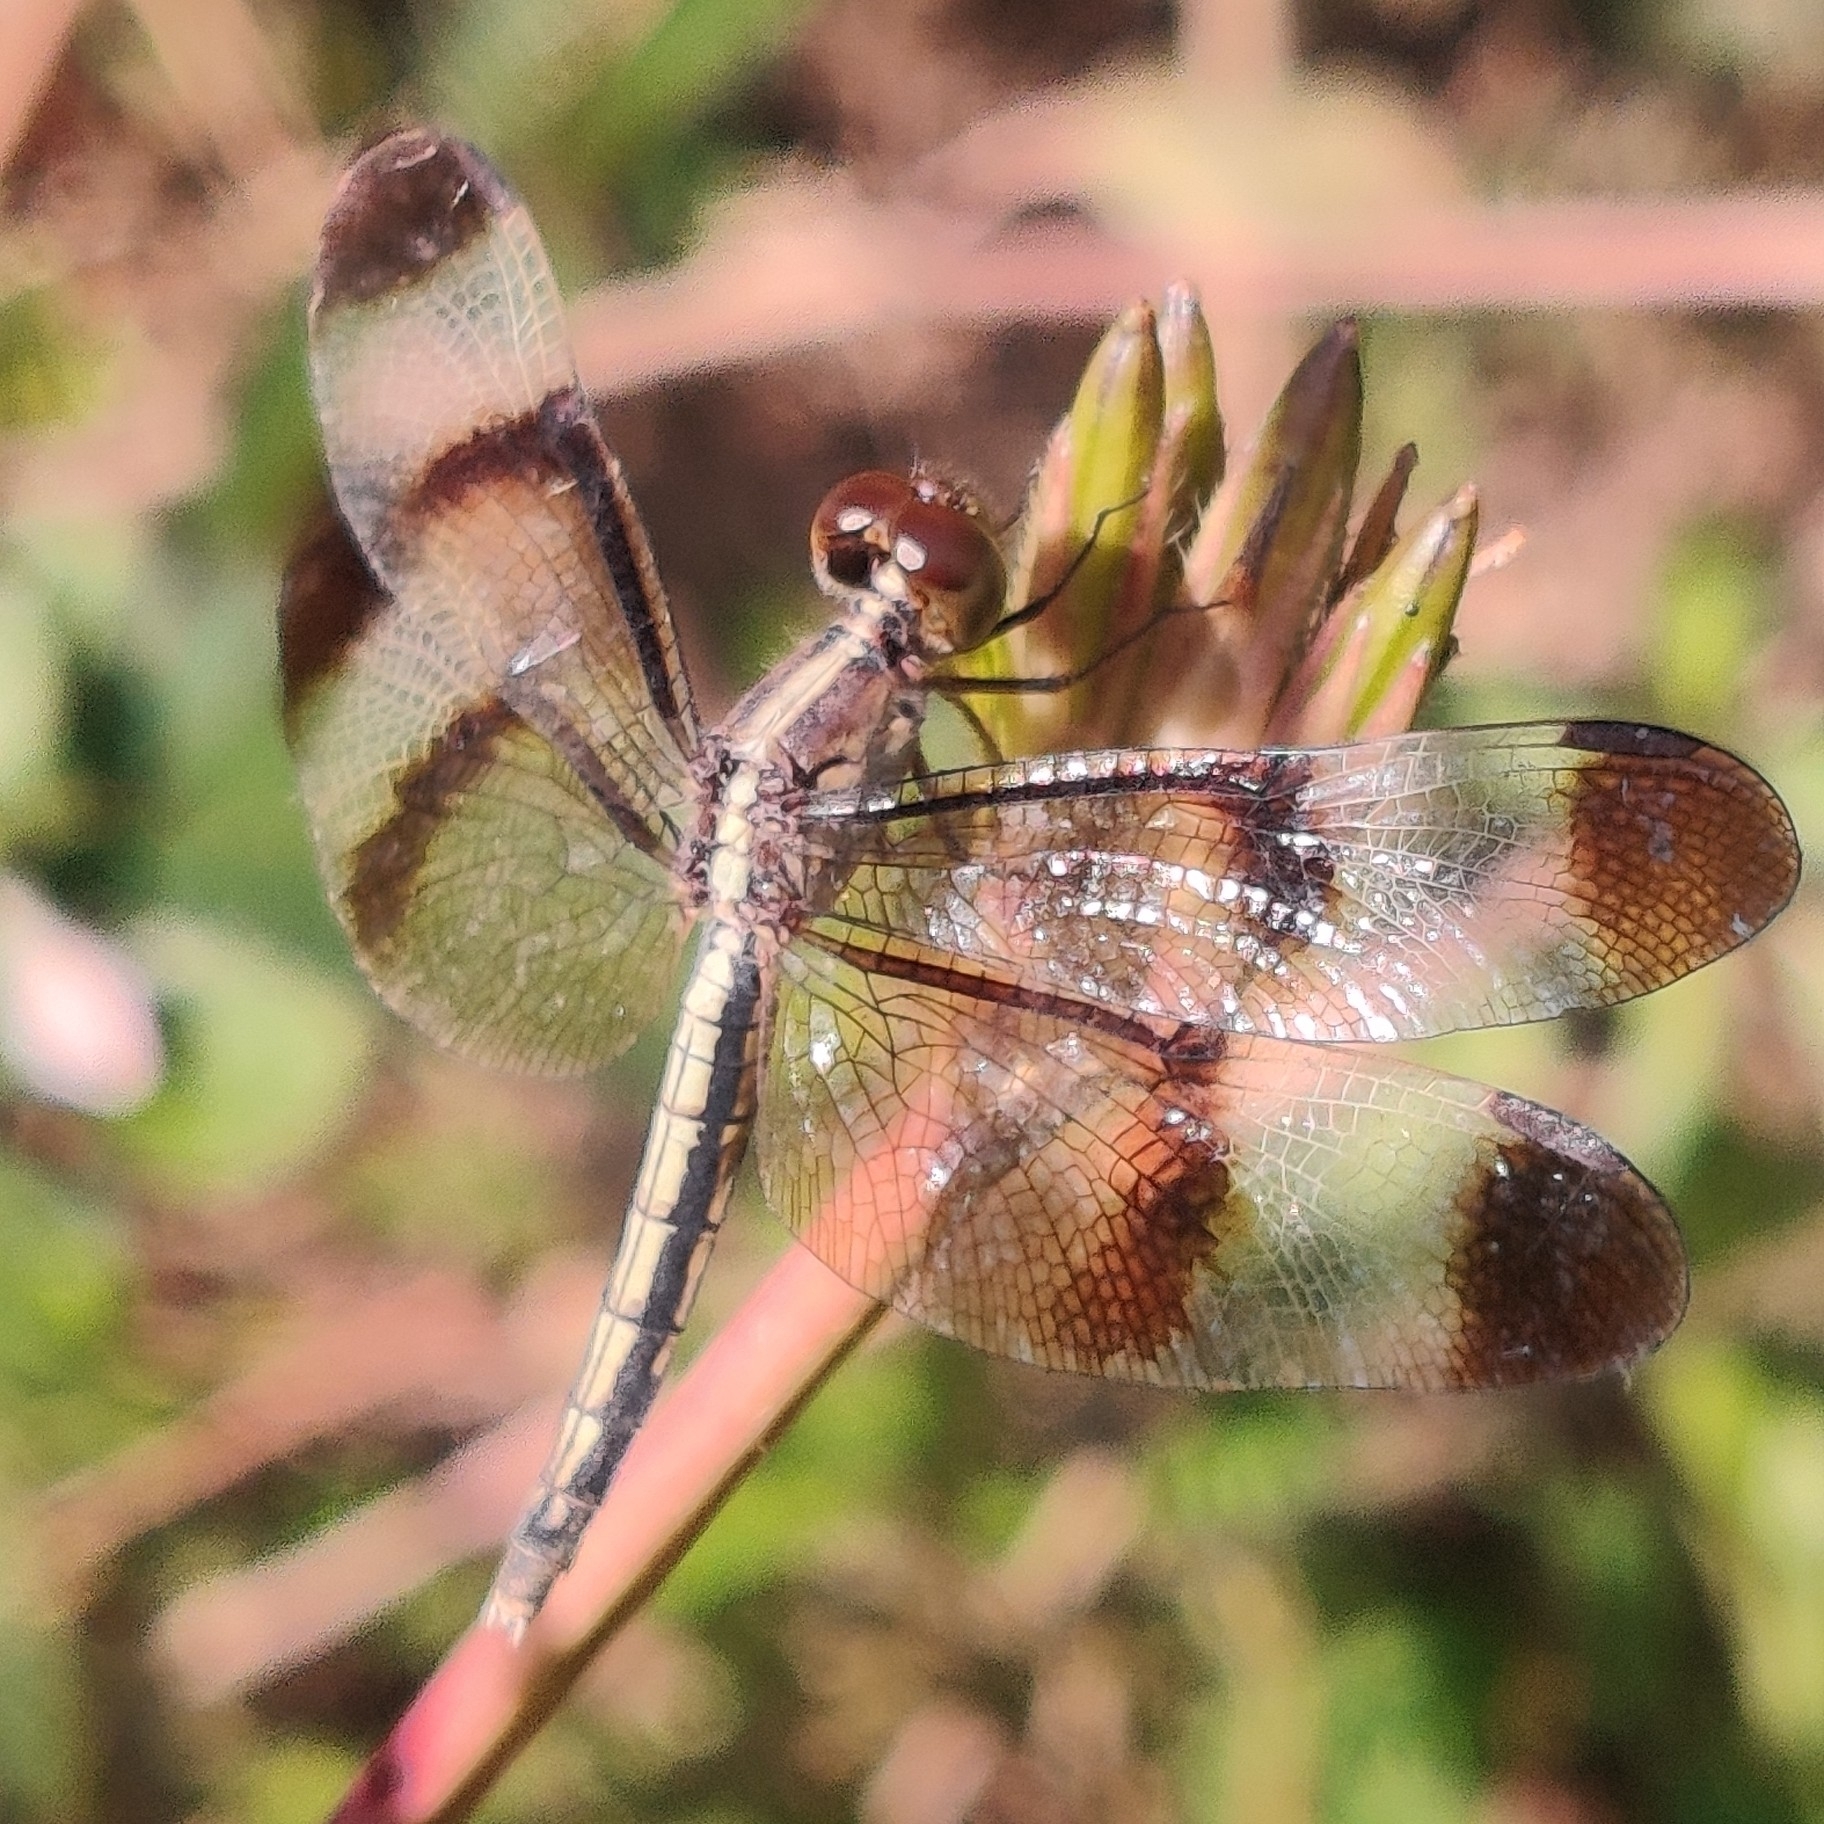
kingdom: Animalia
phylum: Arthropoda
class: Insecta
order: Odonata
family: Libellulidae
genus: Neurothemis
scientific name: Neurothemis tullia
